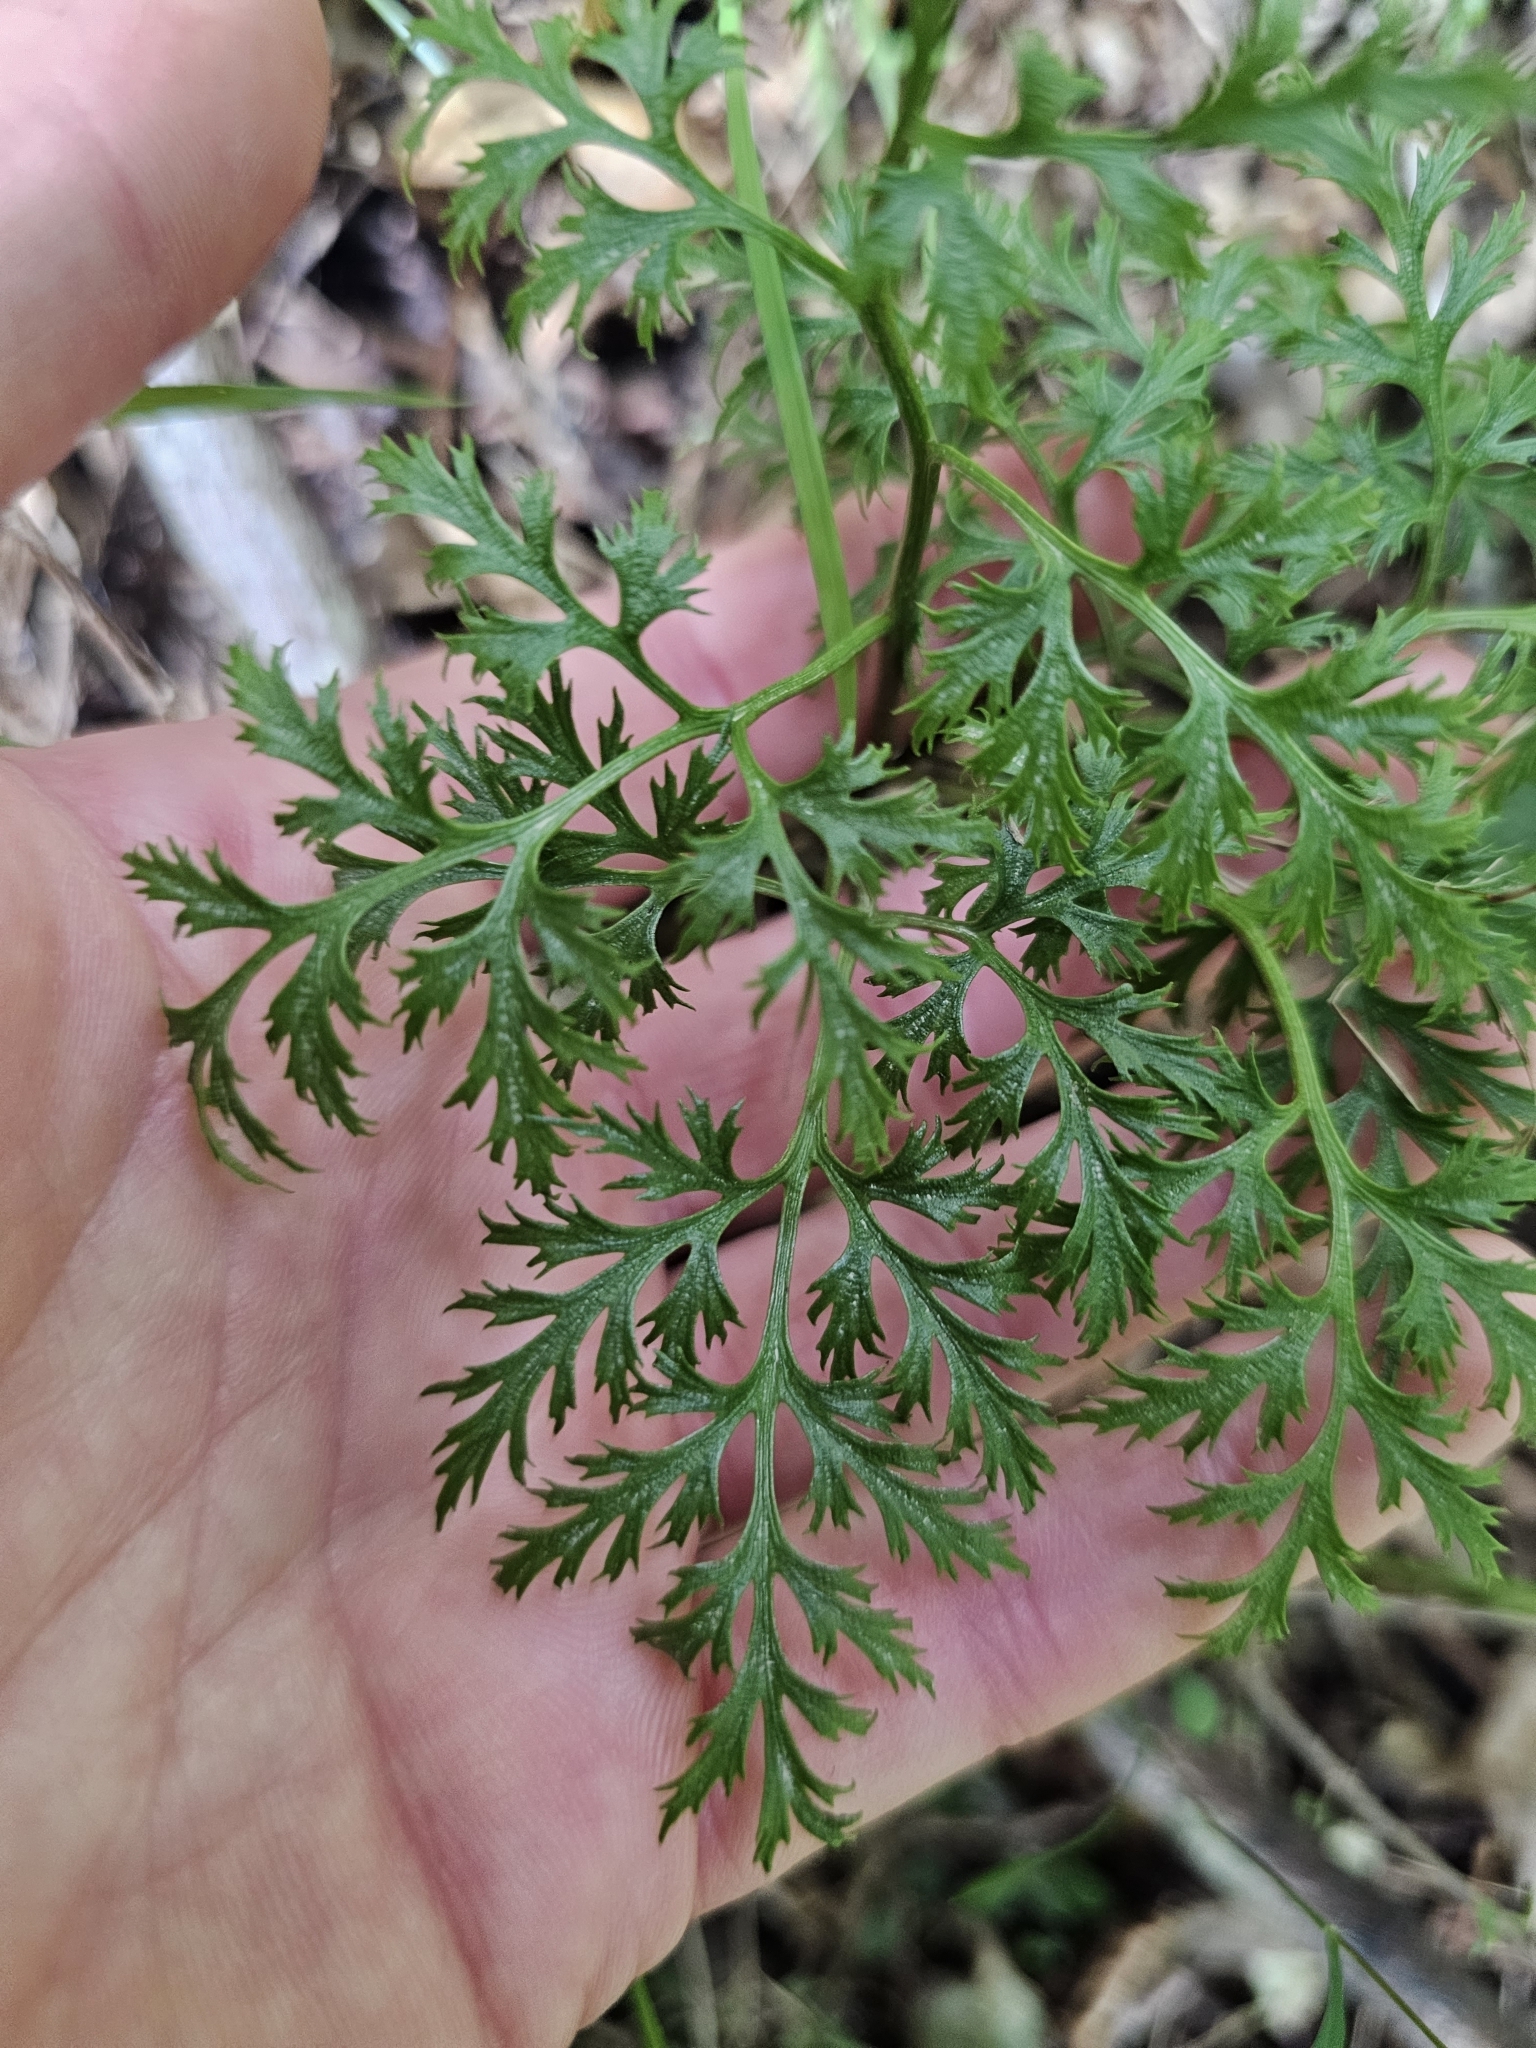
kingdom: Plantae
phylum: Tracheophyta
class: Polypodiopsida
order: Ophioglossales
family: Ophioglossaceae
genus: Sceptridium
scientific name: Sceptridium biforme
